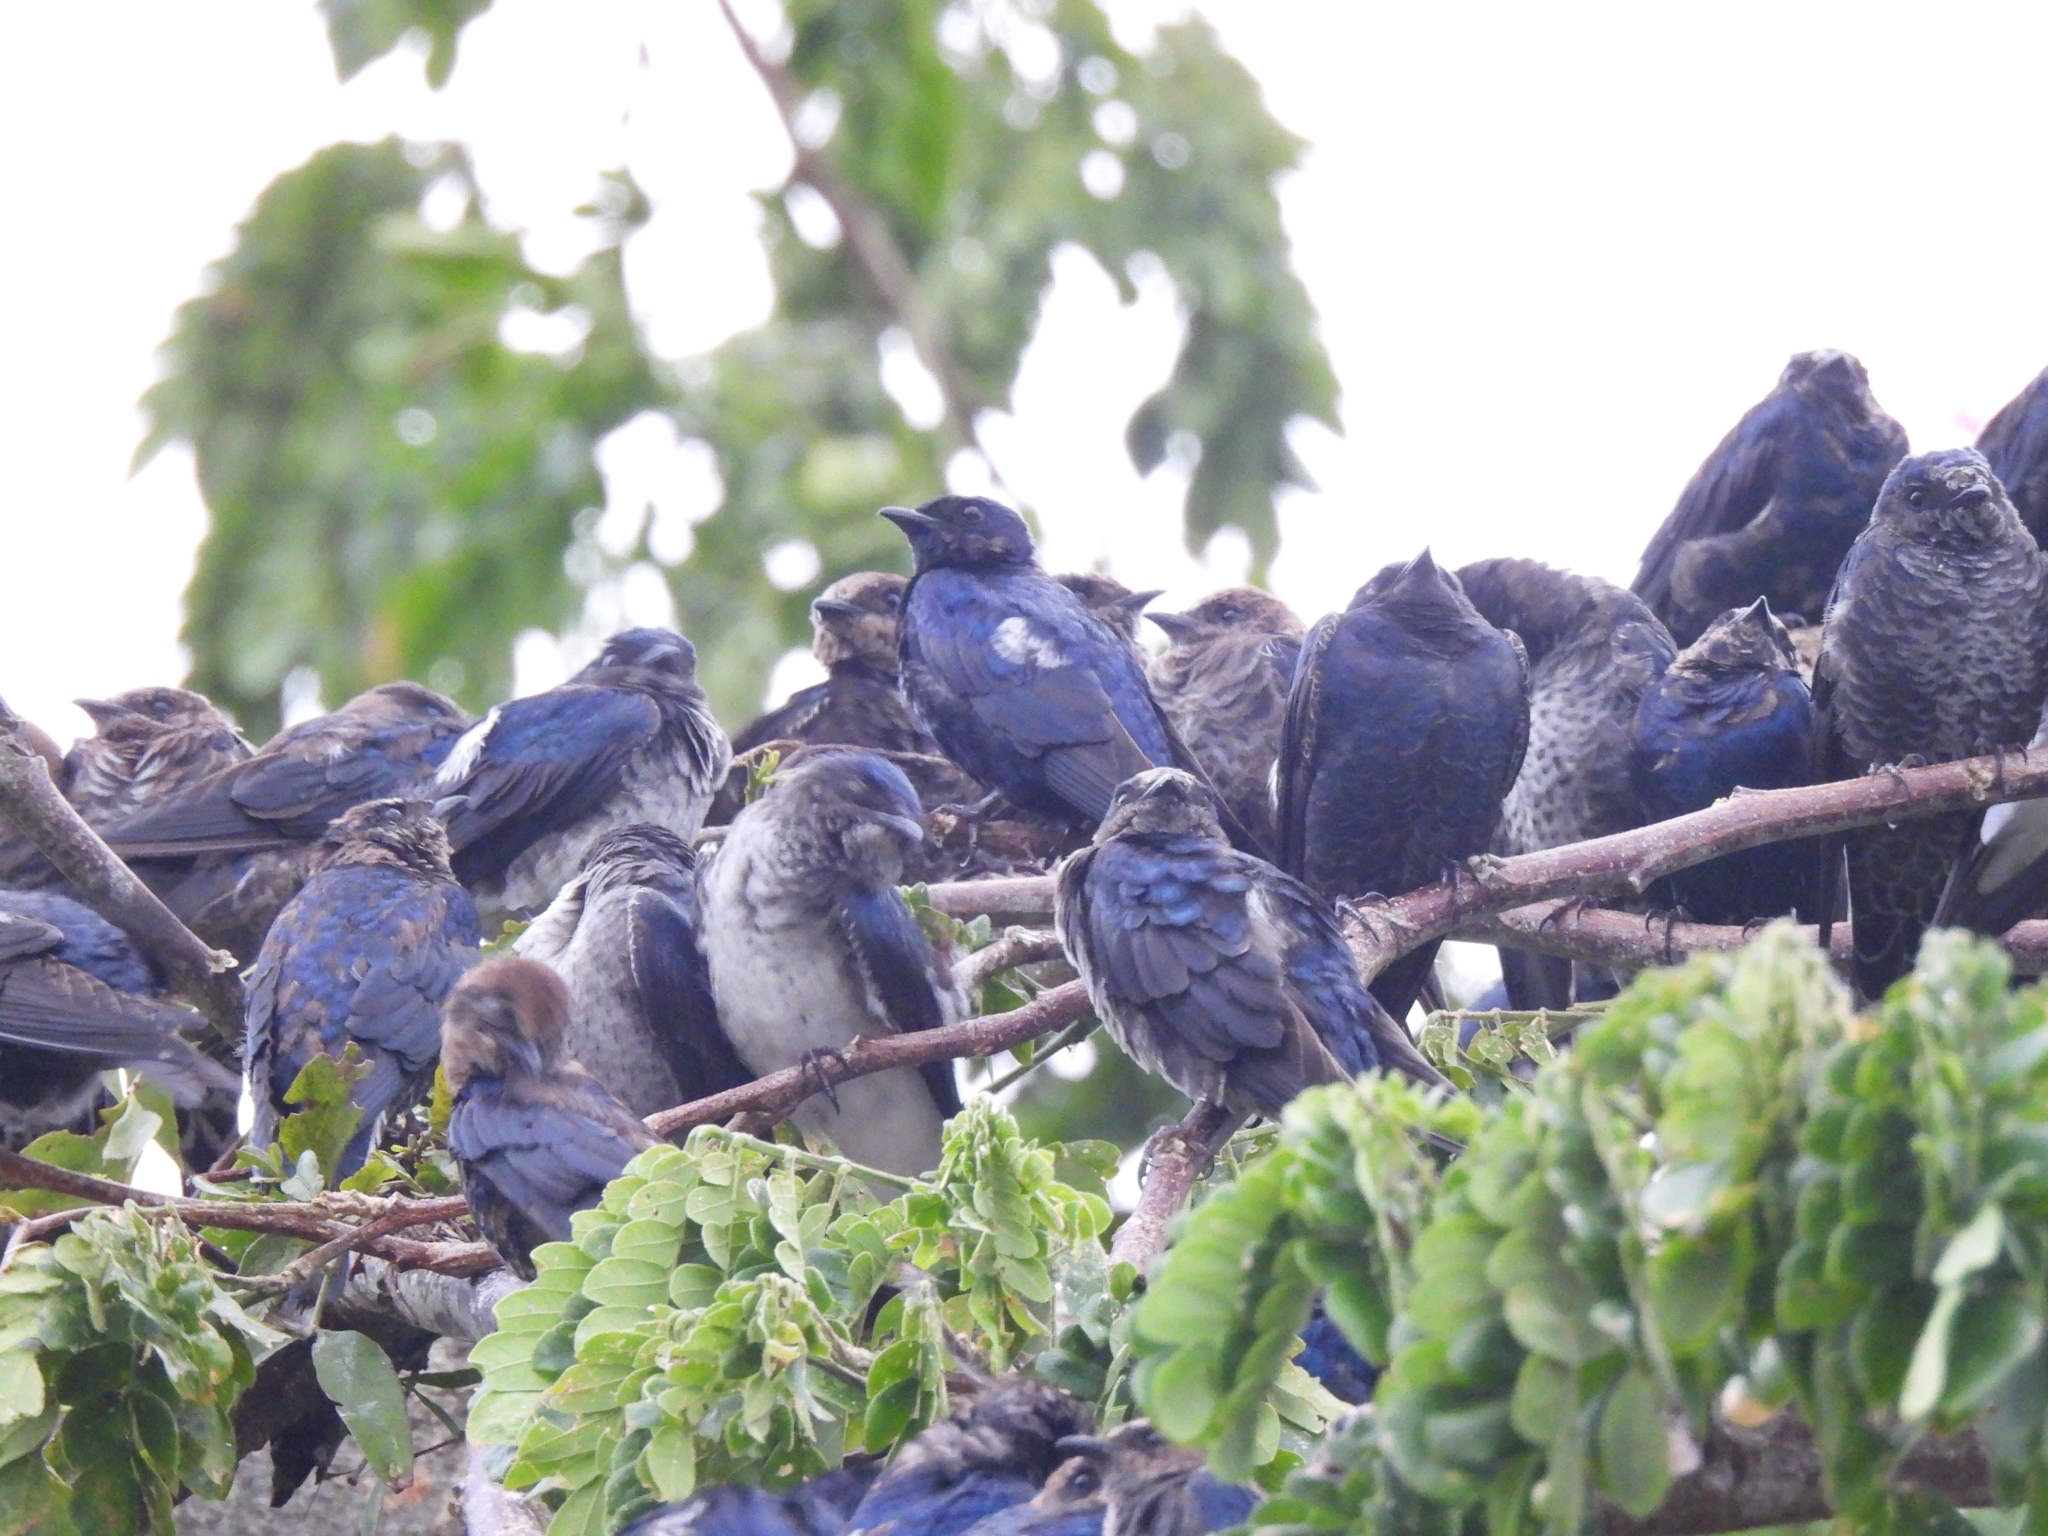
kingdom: Animalia
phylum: Chordata
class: Aves
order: Passeriformes
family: Hirundinidae
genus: Progne
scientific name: Progne subis
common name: Purple martin
